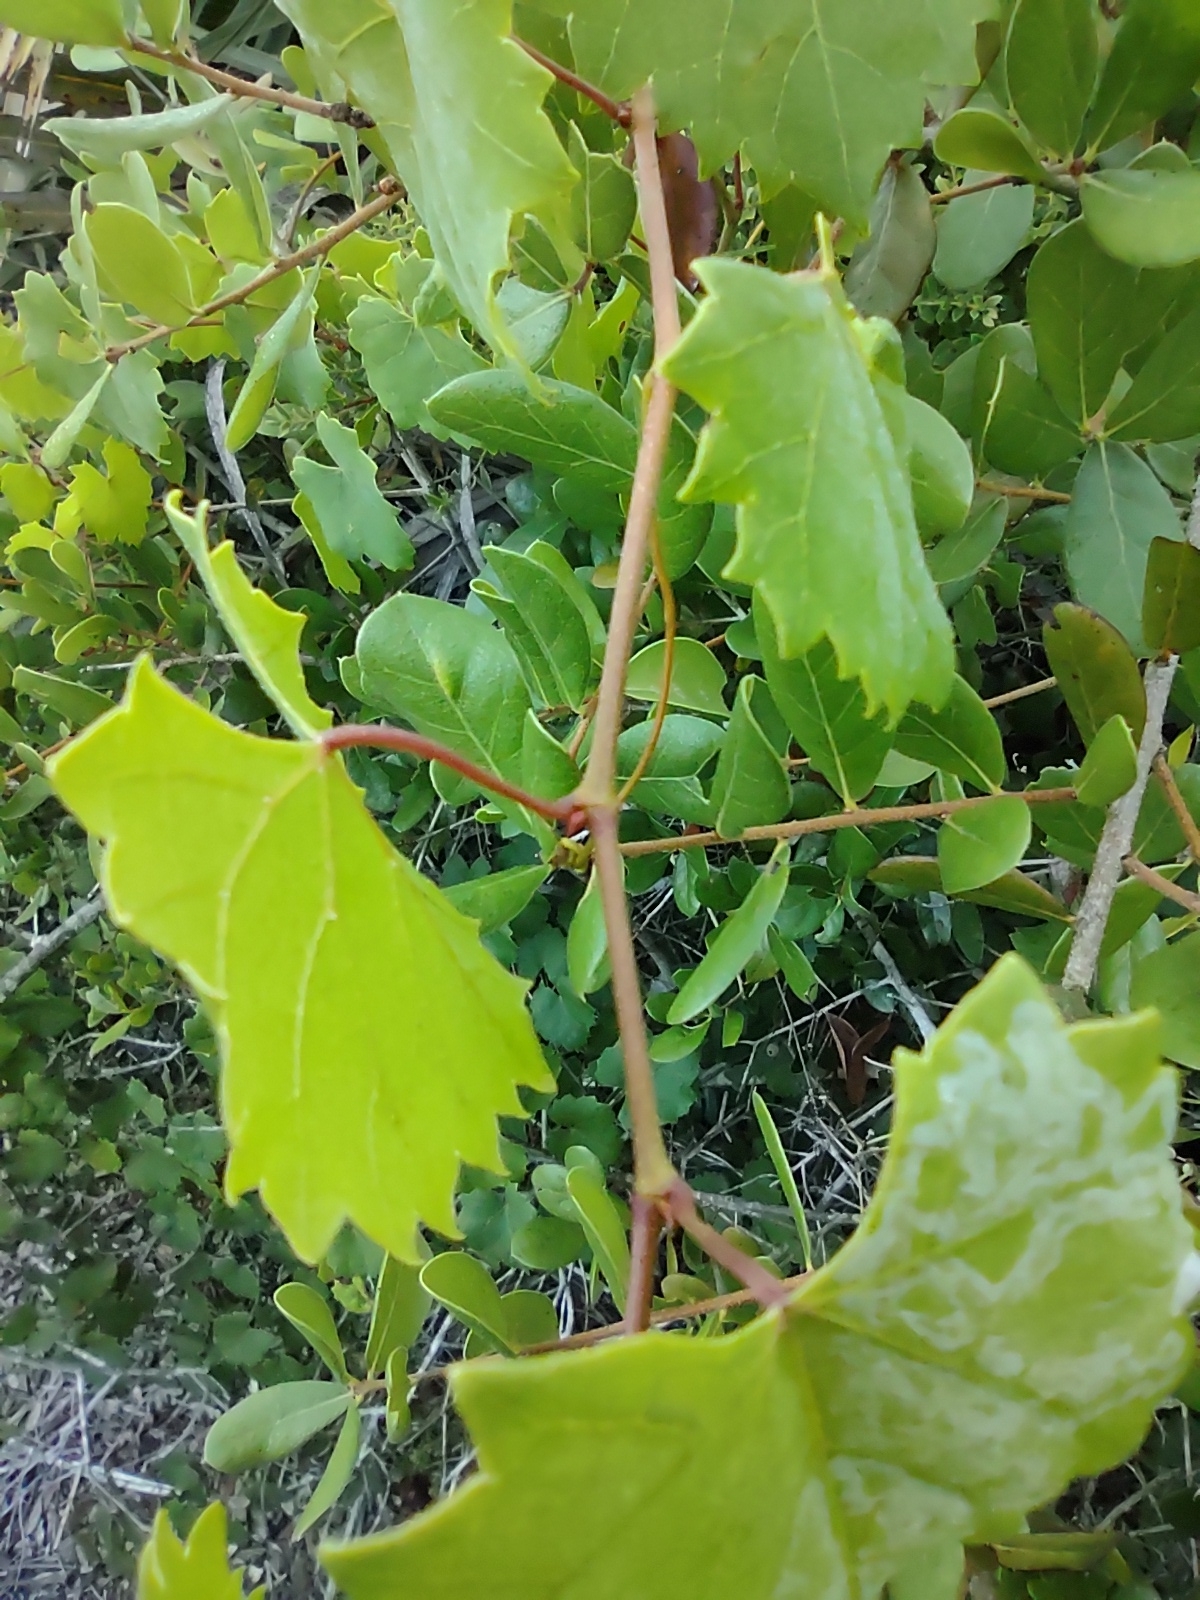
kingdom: Plantae
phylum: Tracheophyta
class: Magnoliopsida
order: Vitales
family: Vitaceae
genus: Vitis
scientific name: Vitis rotundifolia
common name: Muscadine grape
